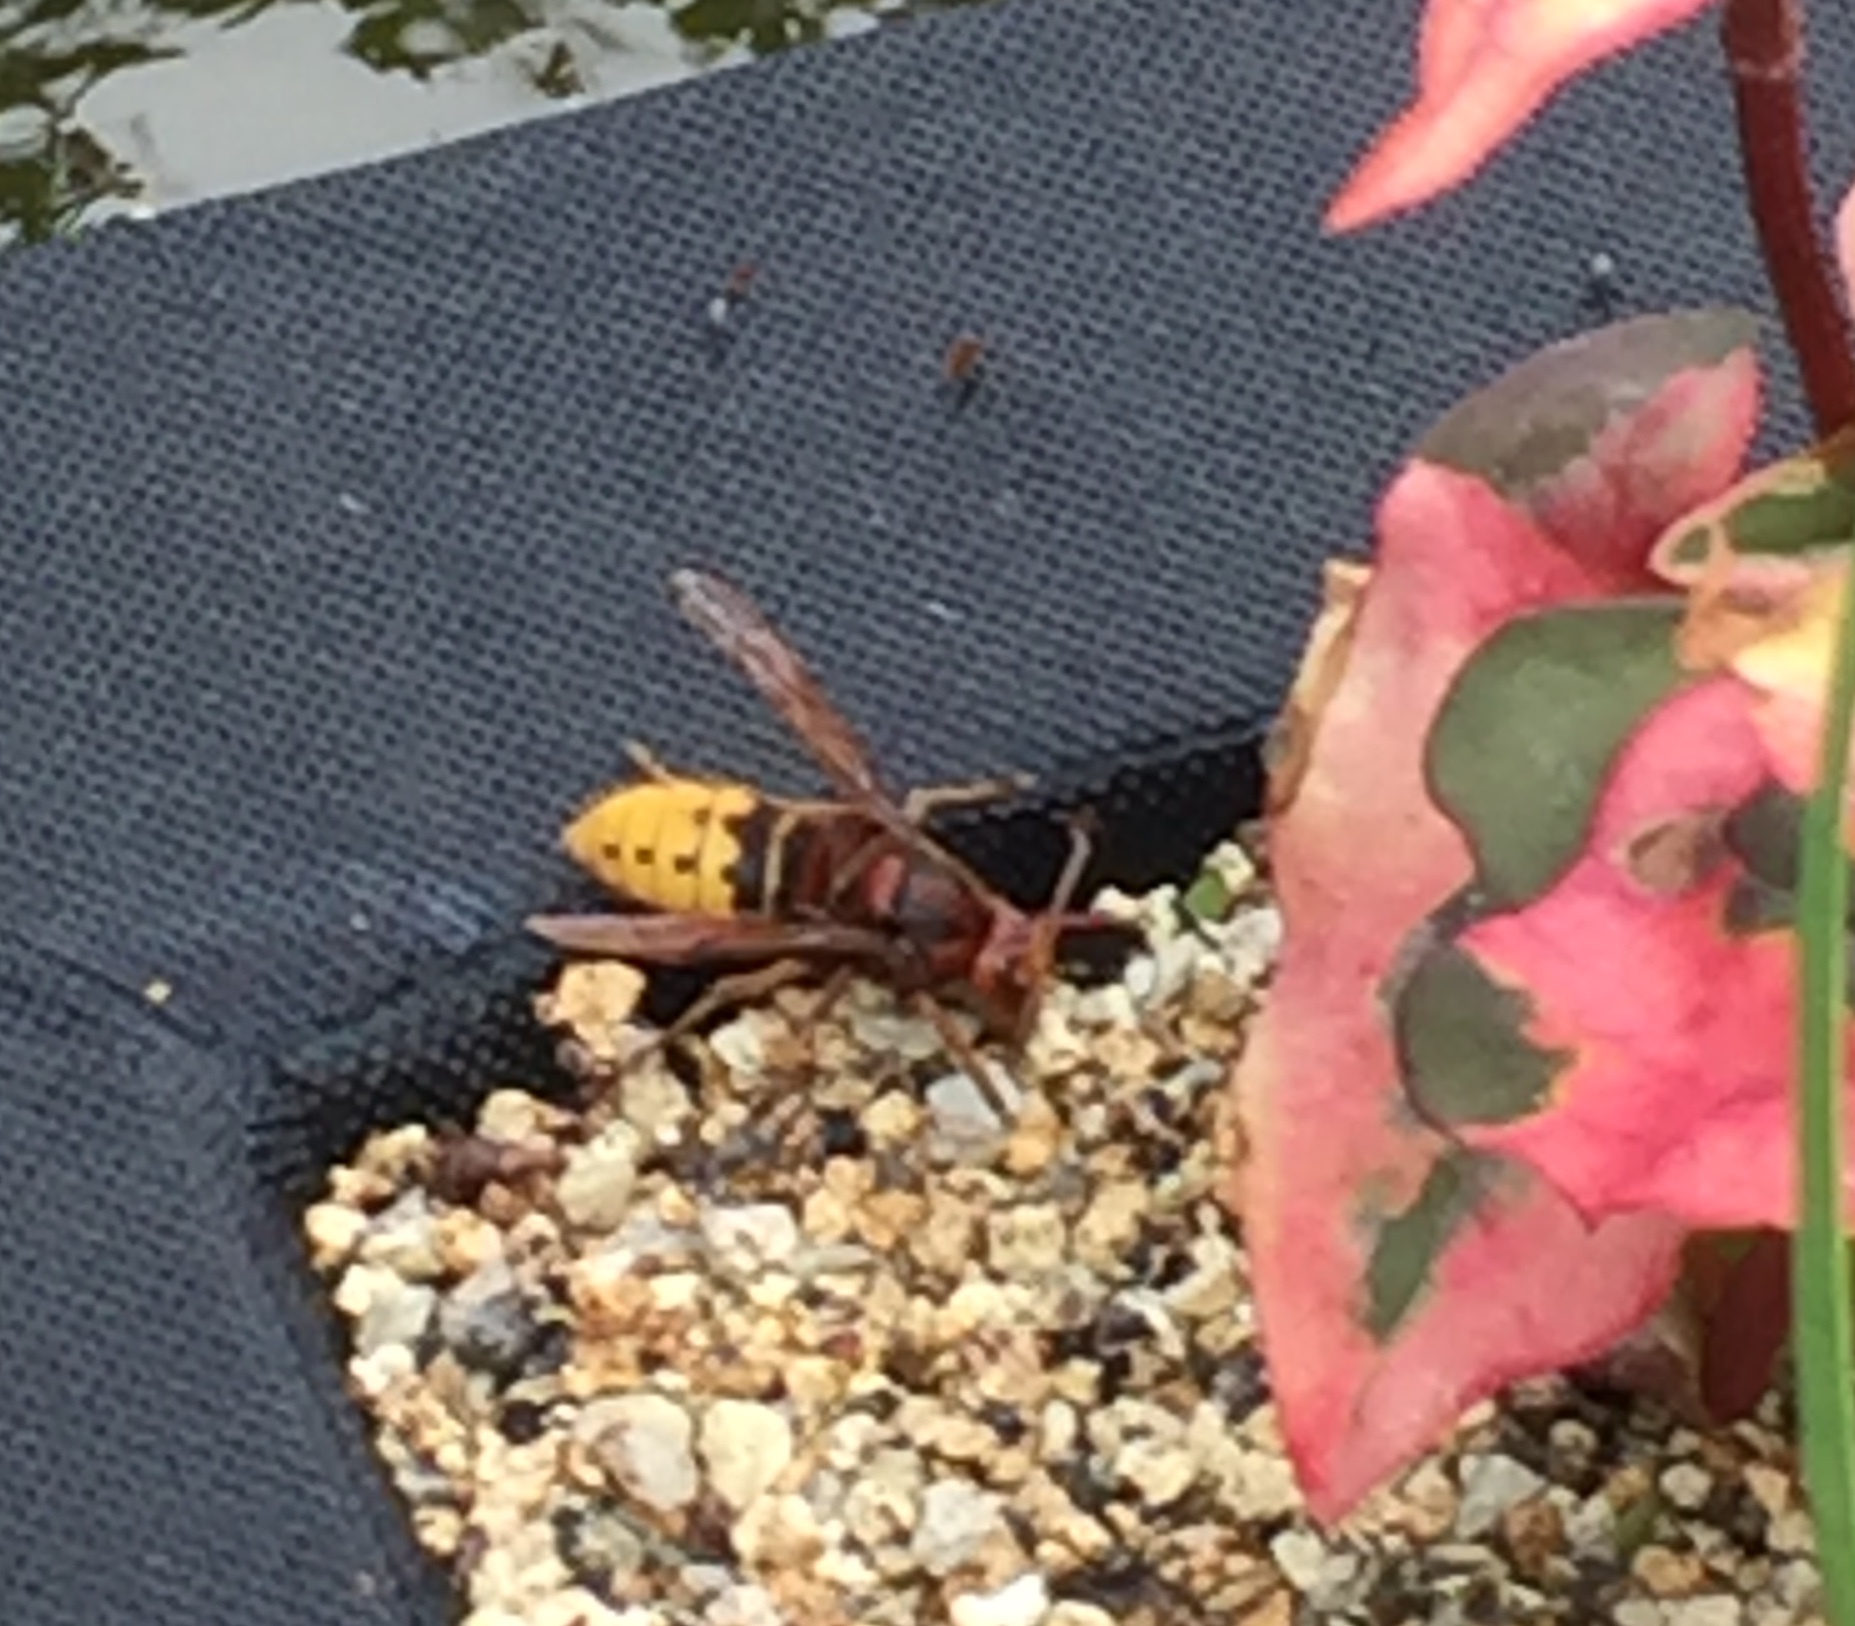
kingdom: Animalia
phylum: Arthropoda
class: Insecta
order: Hymenoptera
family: Vespidae
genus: Vespa
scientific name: Vespa crabro
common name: Hornet
